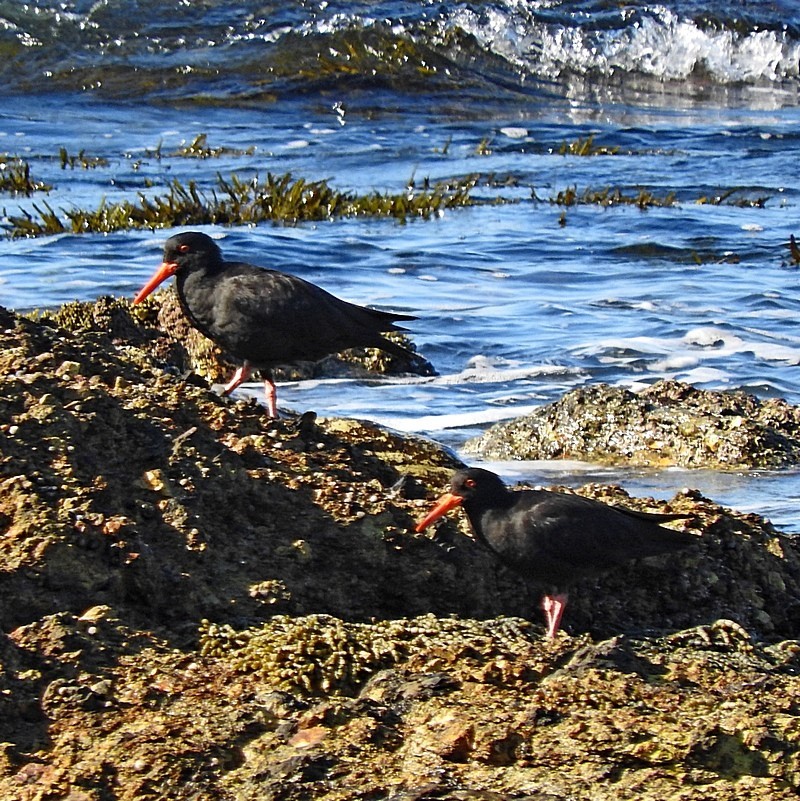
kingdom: Animalia
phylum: Chordata
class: Aves
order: Charadriiformes
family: Haematopodidae
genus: Haematopus
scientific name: Haematopus fuliginosus
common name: Sooty oystercatcher
